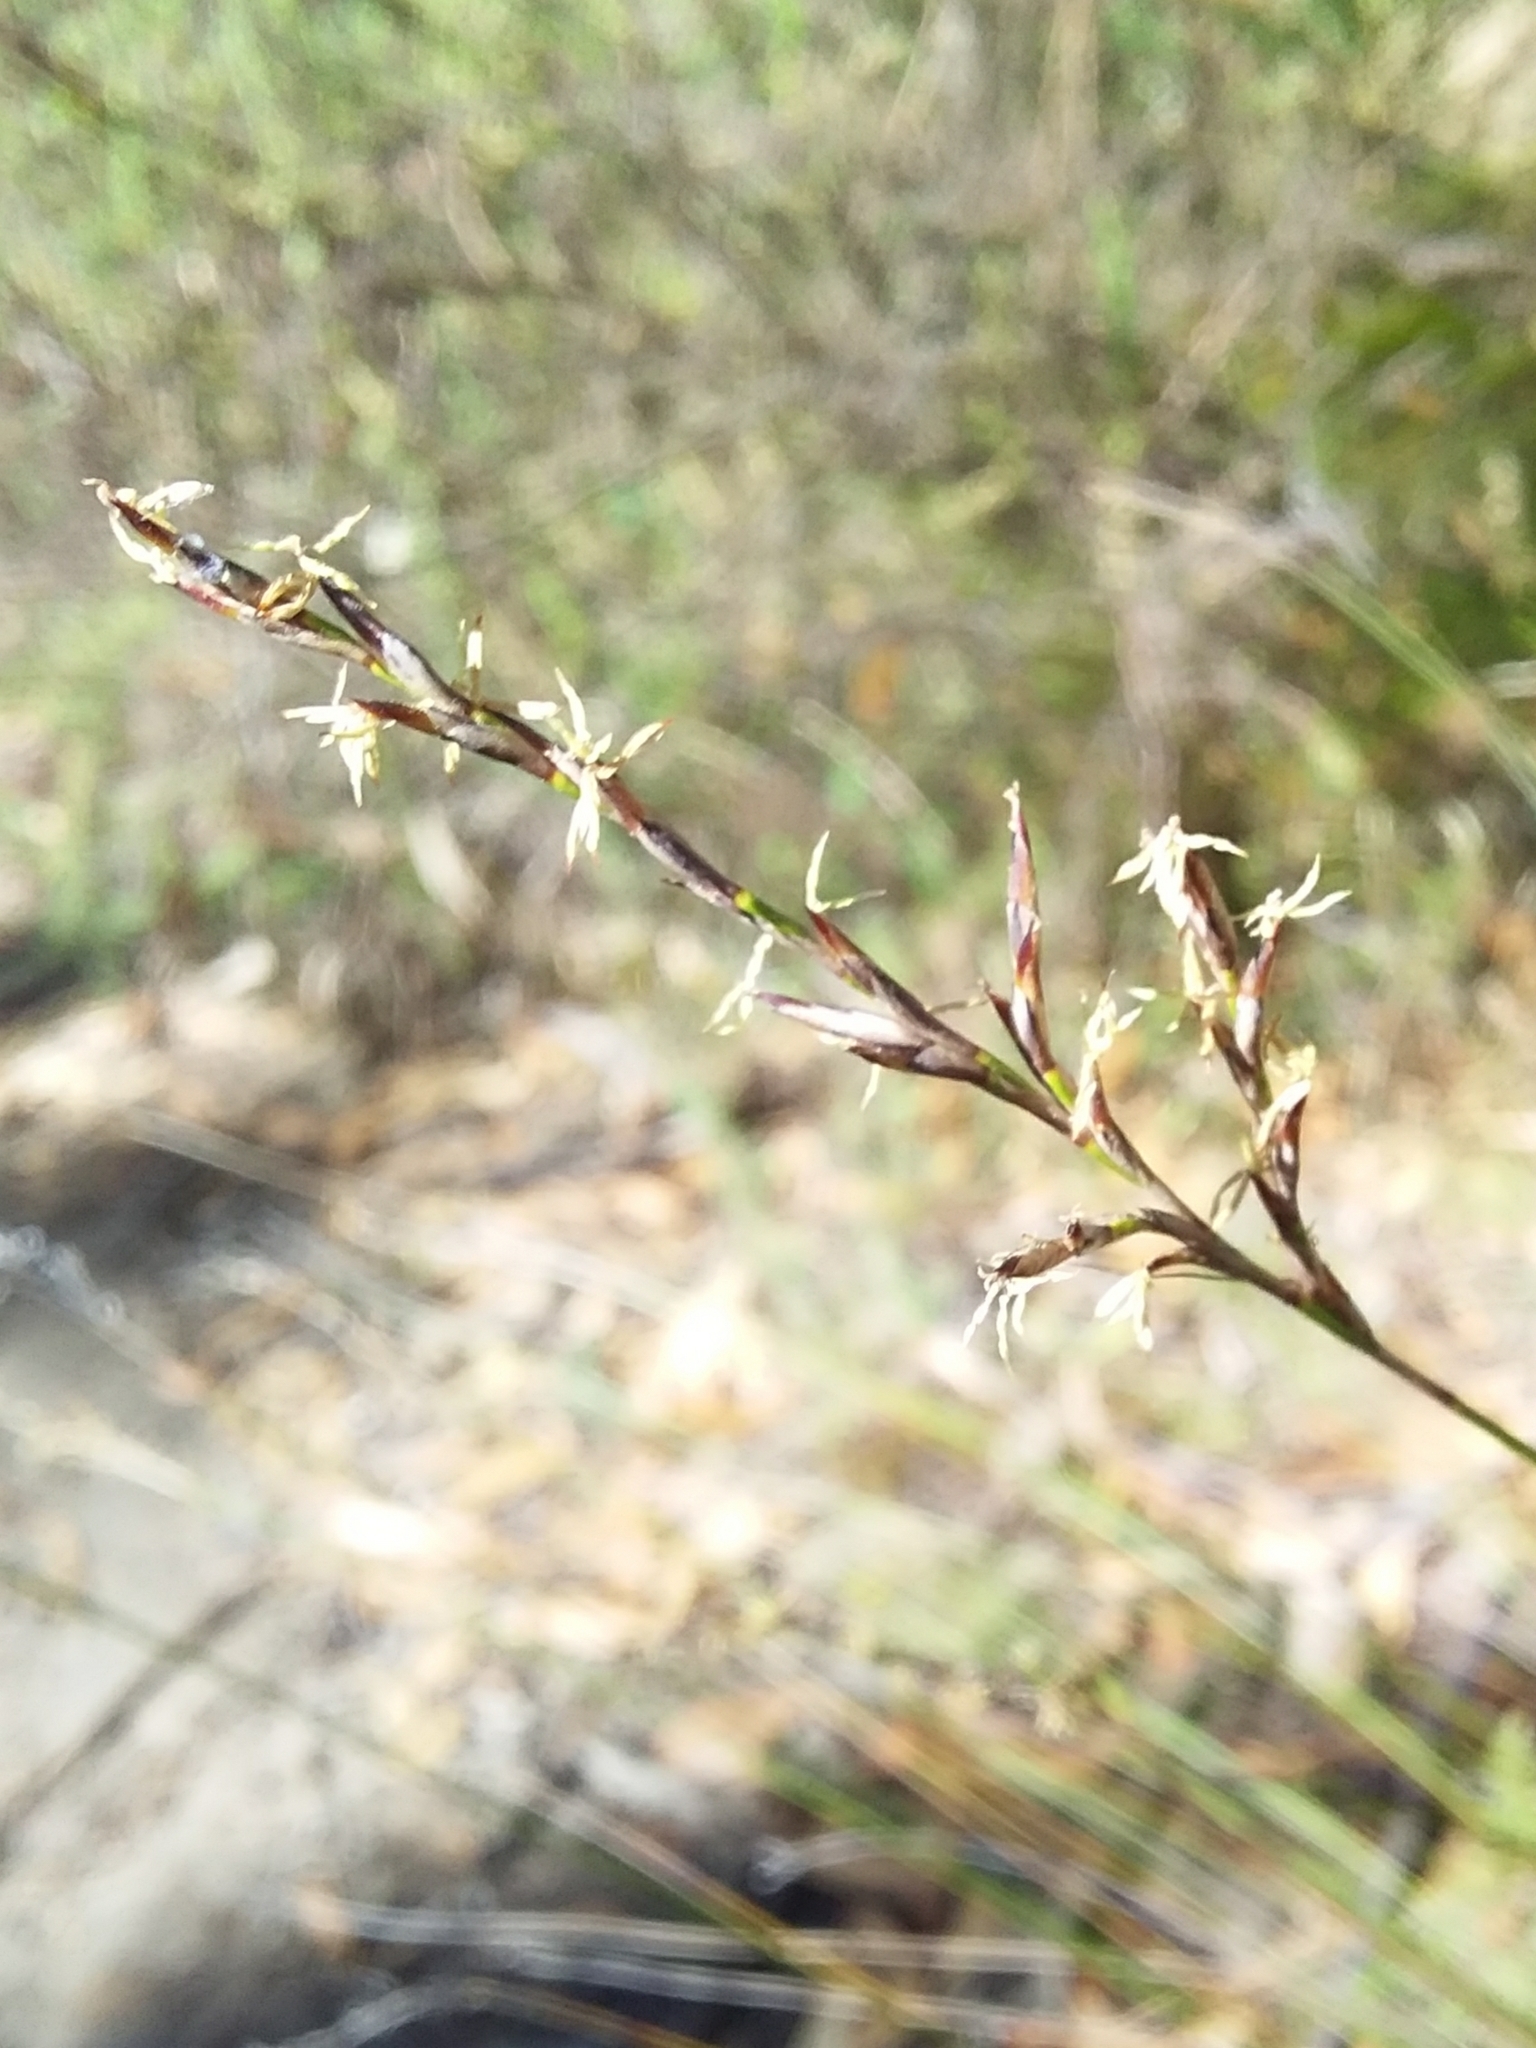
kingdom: Plantae
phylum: Tracheophyta
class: Liliopsida
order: Poales
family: Cyperaceae
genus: Lepidosperma
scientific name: Lepidosperma semiteres
